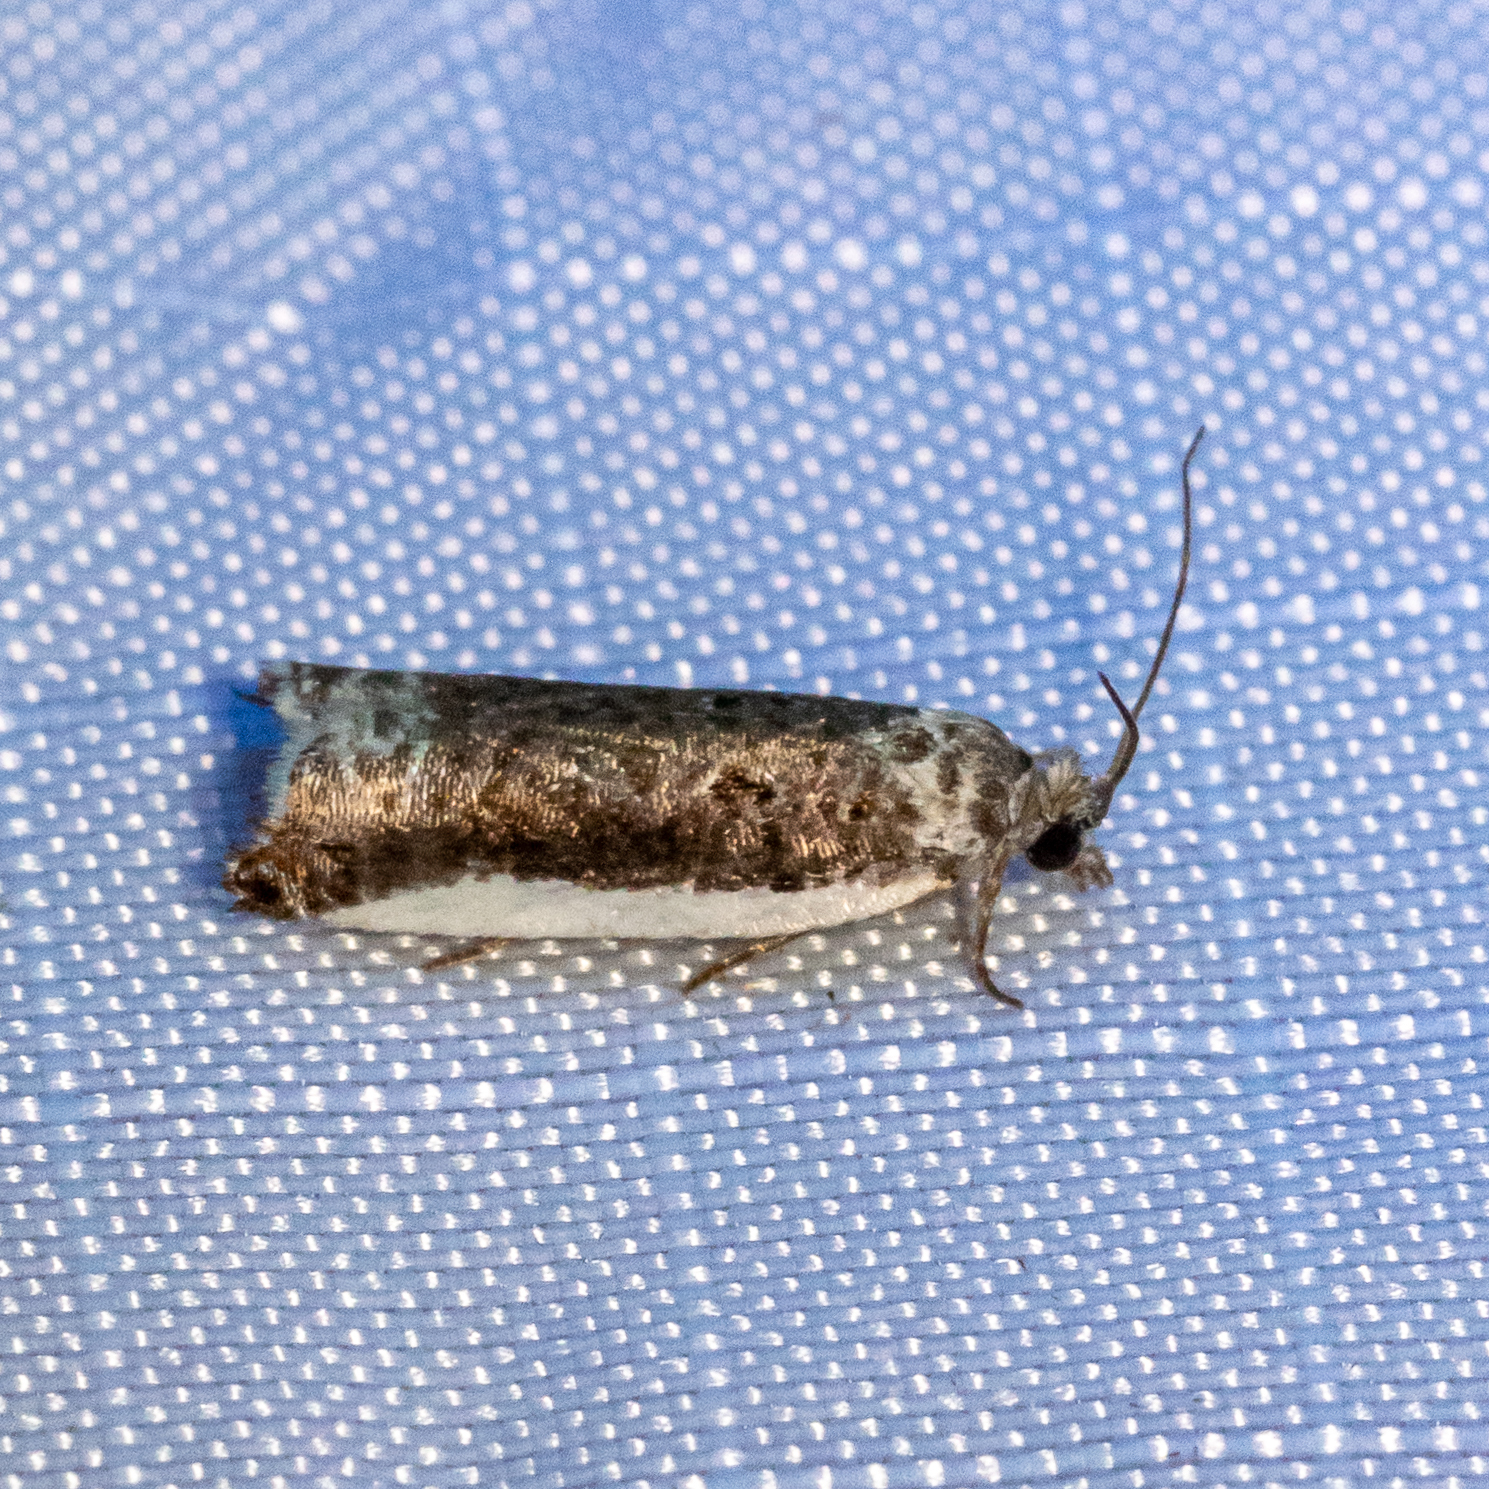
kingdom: Animalia
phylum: Arthropoda
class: Insecta
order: Lepidoptera
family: Tortricidae
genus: Ancylis
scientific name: Ancylis albacostana
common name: White-edged ancylis moth
